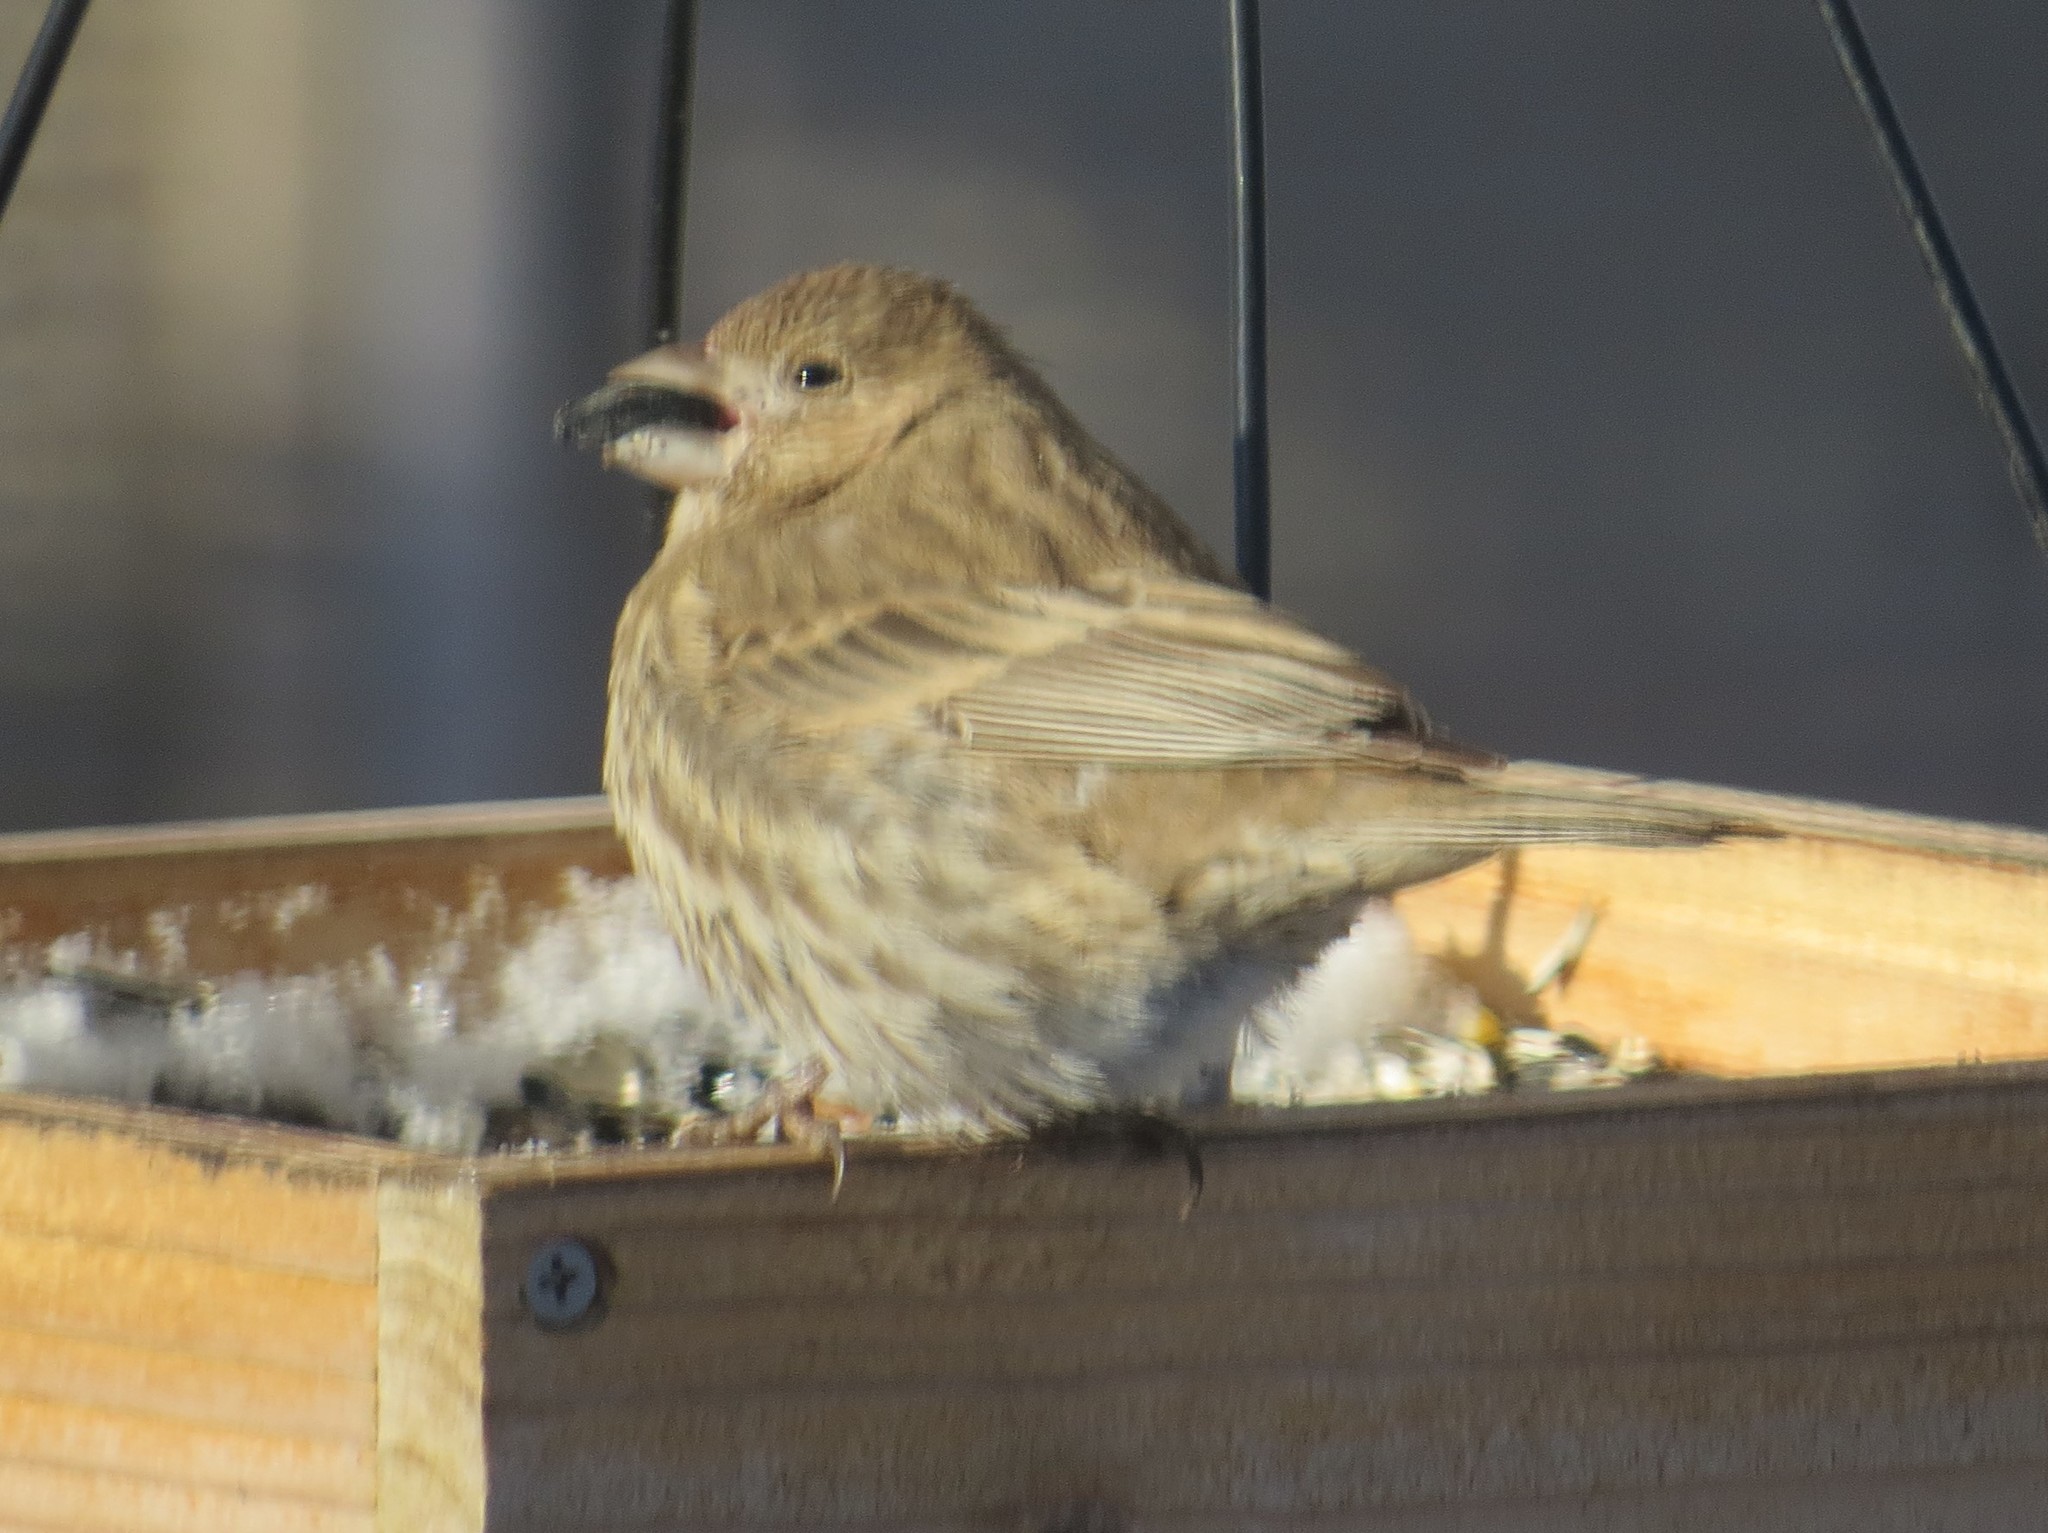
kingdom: Animalia
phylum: Chordata
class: Aves
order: Passeriformes
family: Fringillidae
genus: Haemorhous
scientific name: Haemorhous mexicanus
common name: House finch
